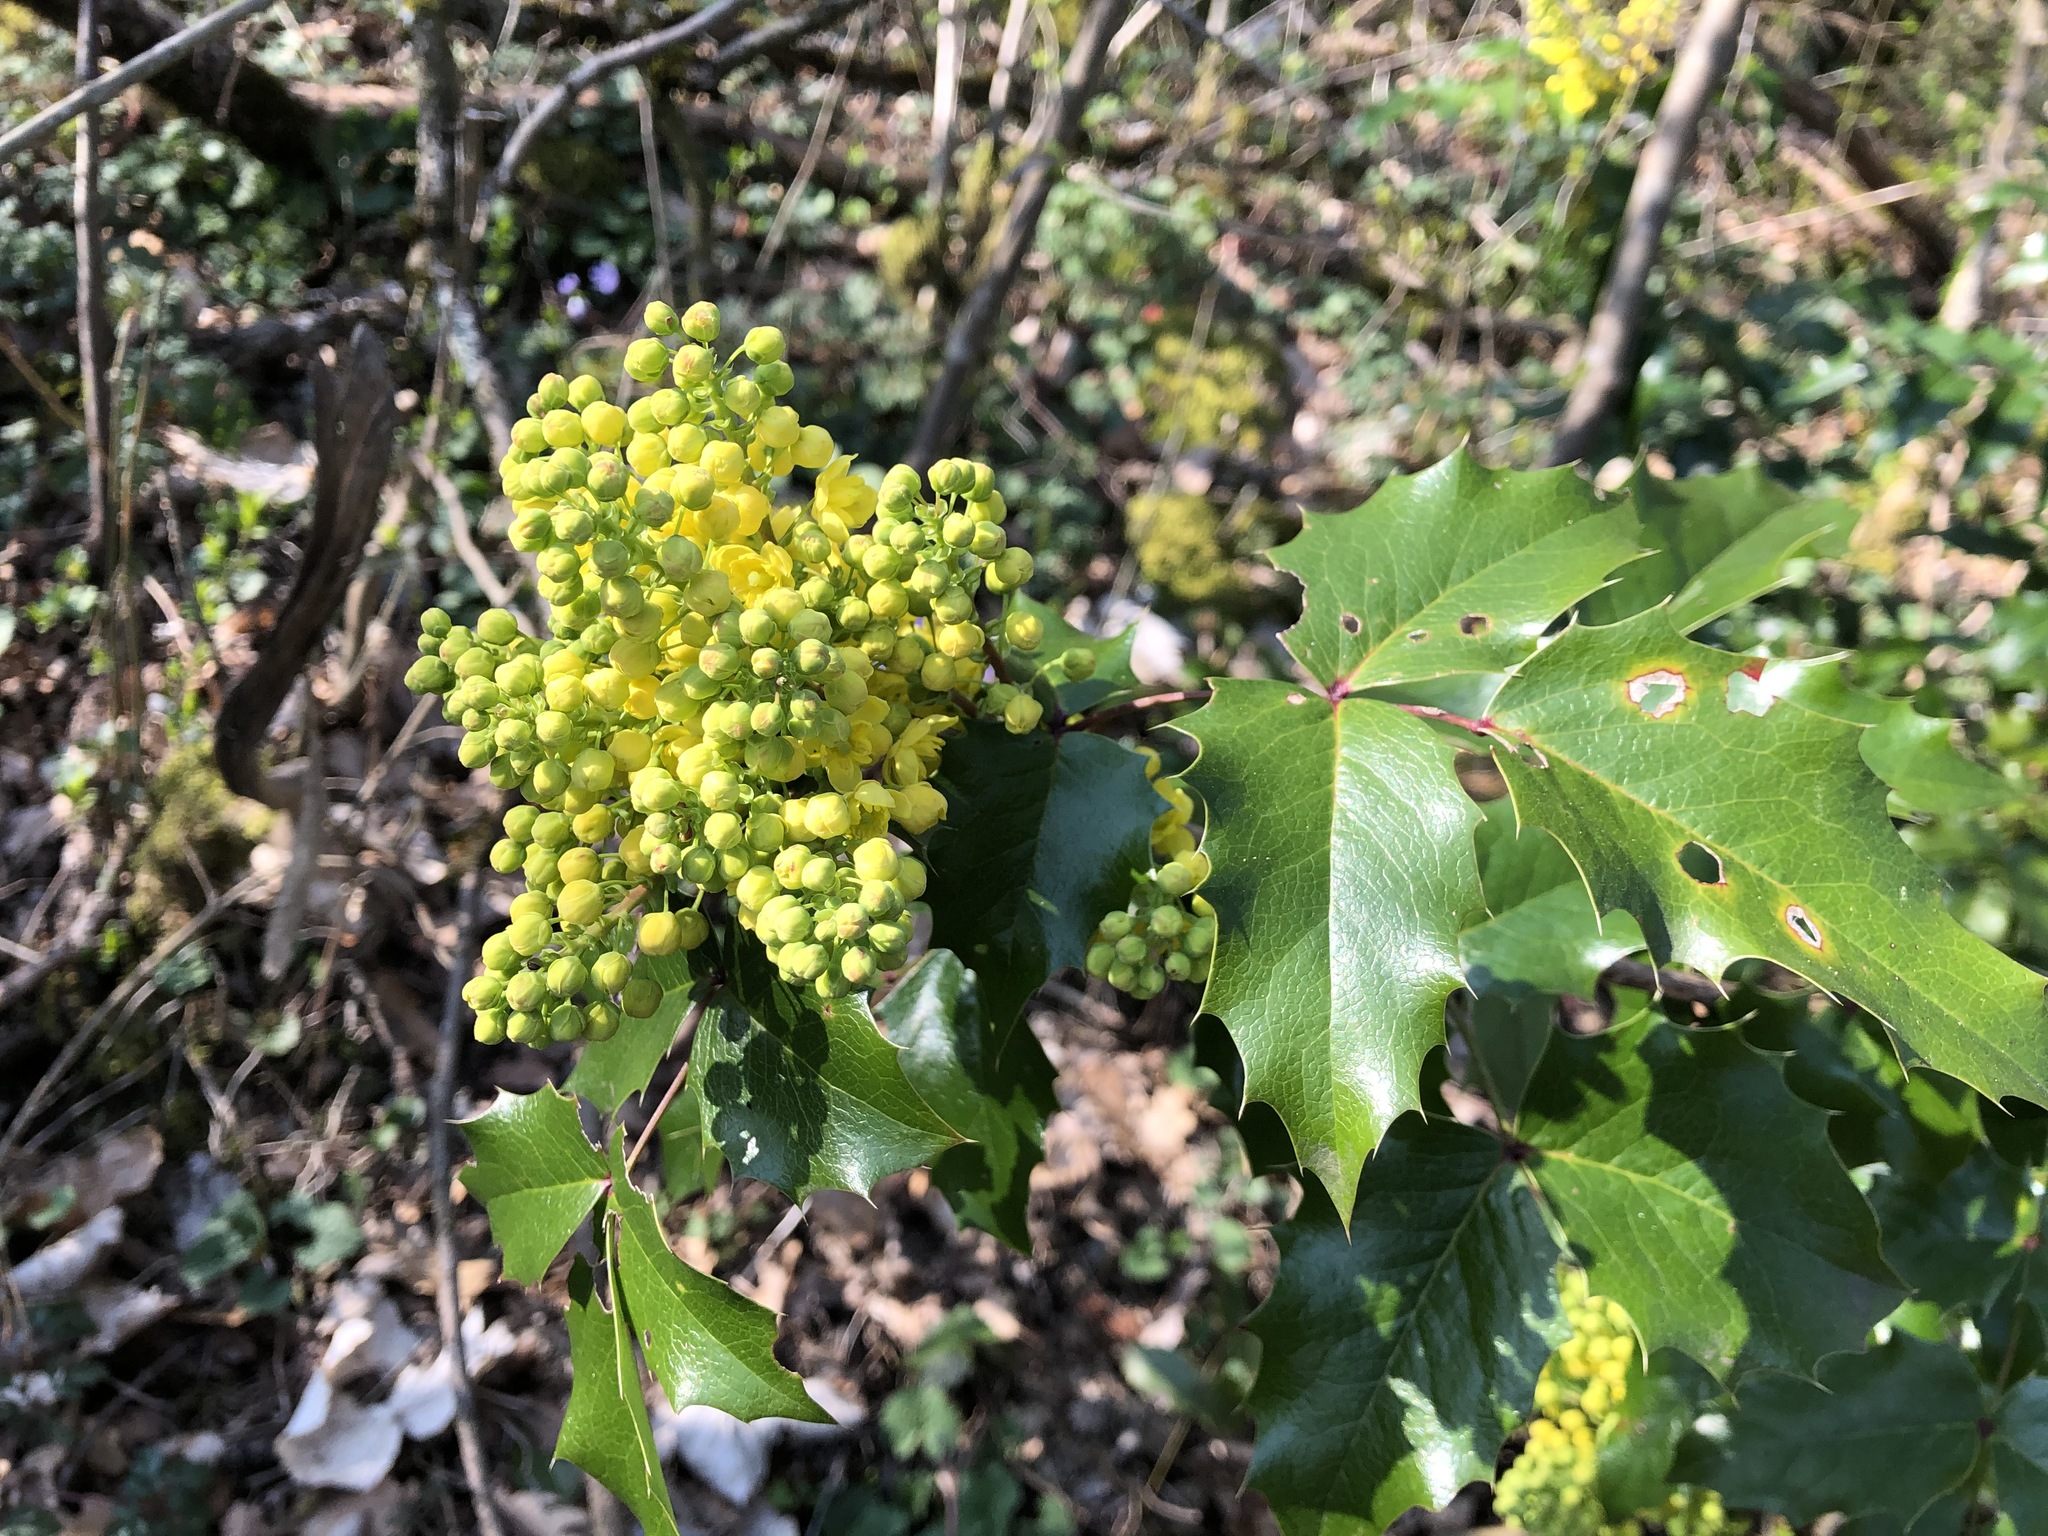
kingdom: Plantae
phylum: Tracheophyta
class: Magnoliopsida
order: Ranunculales
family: Berberidaceae
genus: Mahonia
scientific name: Mahonia aquifolium
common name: Oregon-grape
